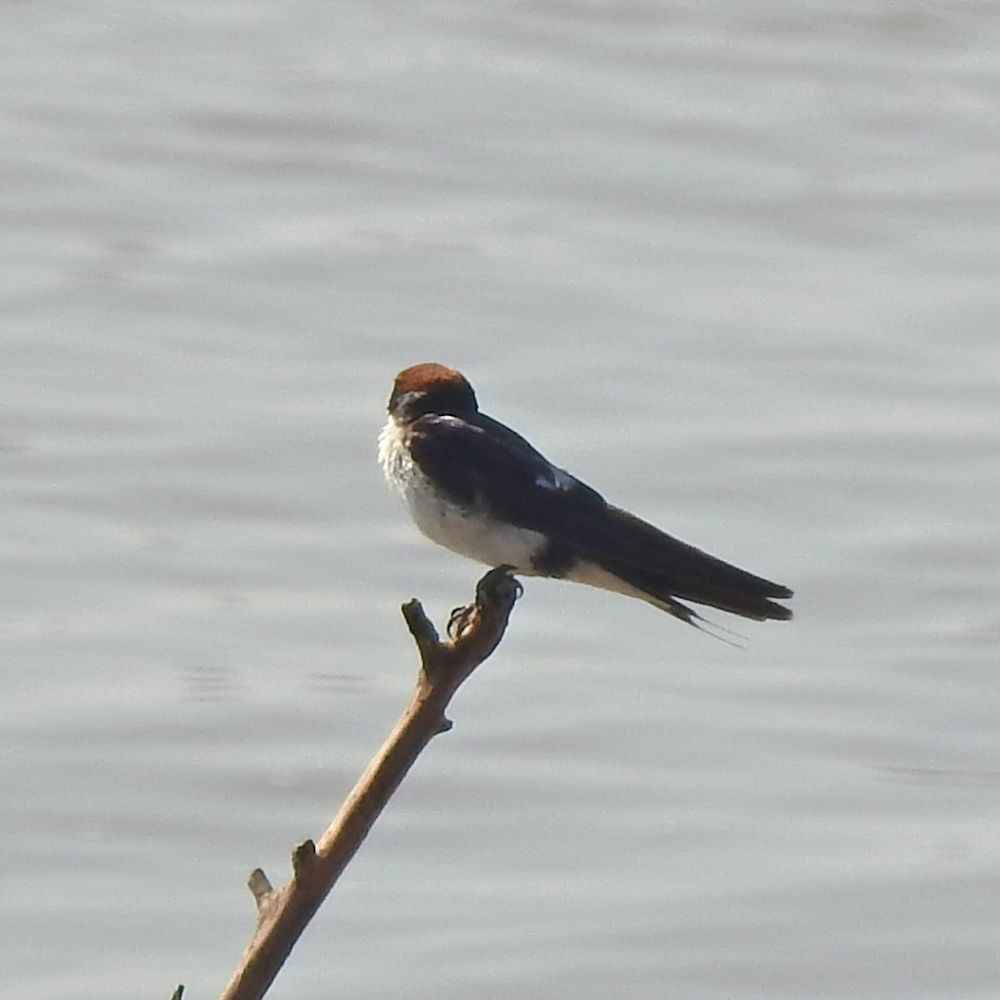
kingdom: Animalia
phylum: Chordata
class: Aves
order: Passeriformes
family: Hirundinidae
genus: Hirundo
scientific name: Hirundo smithii
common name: Wire-tailed swallow
